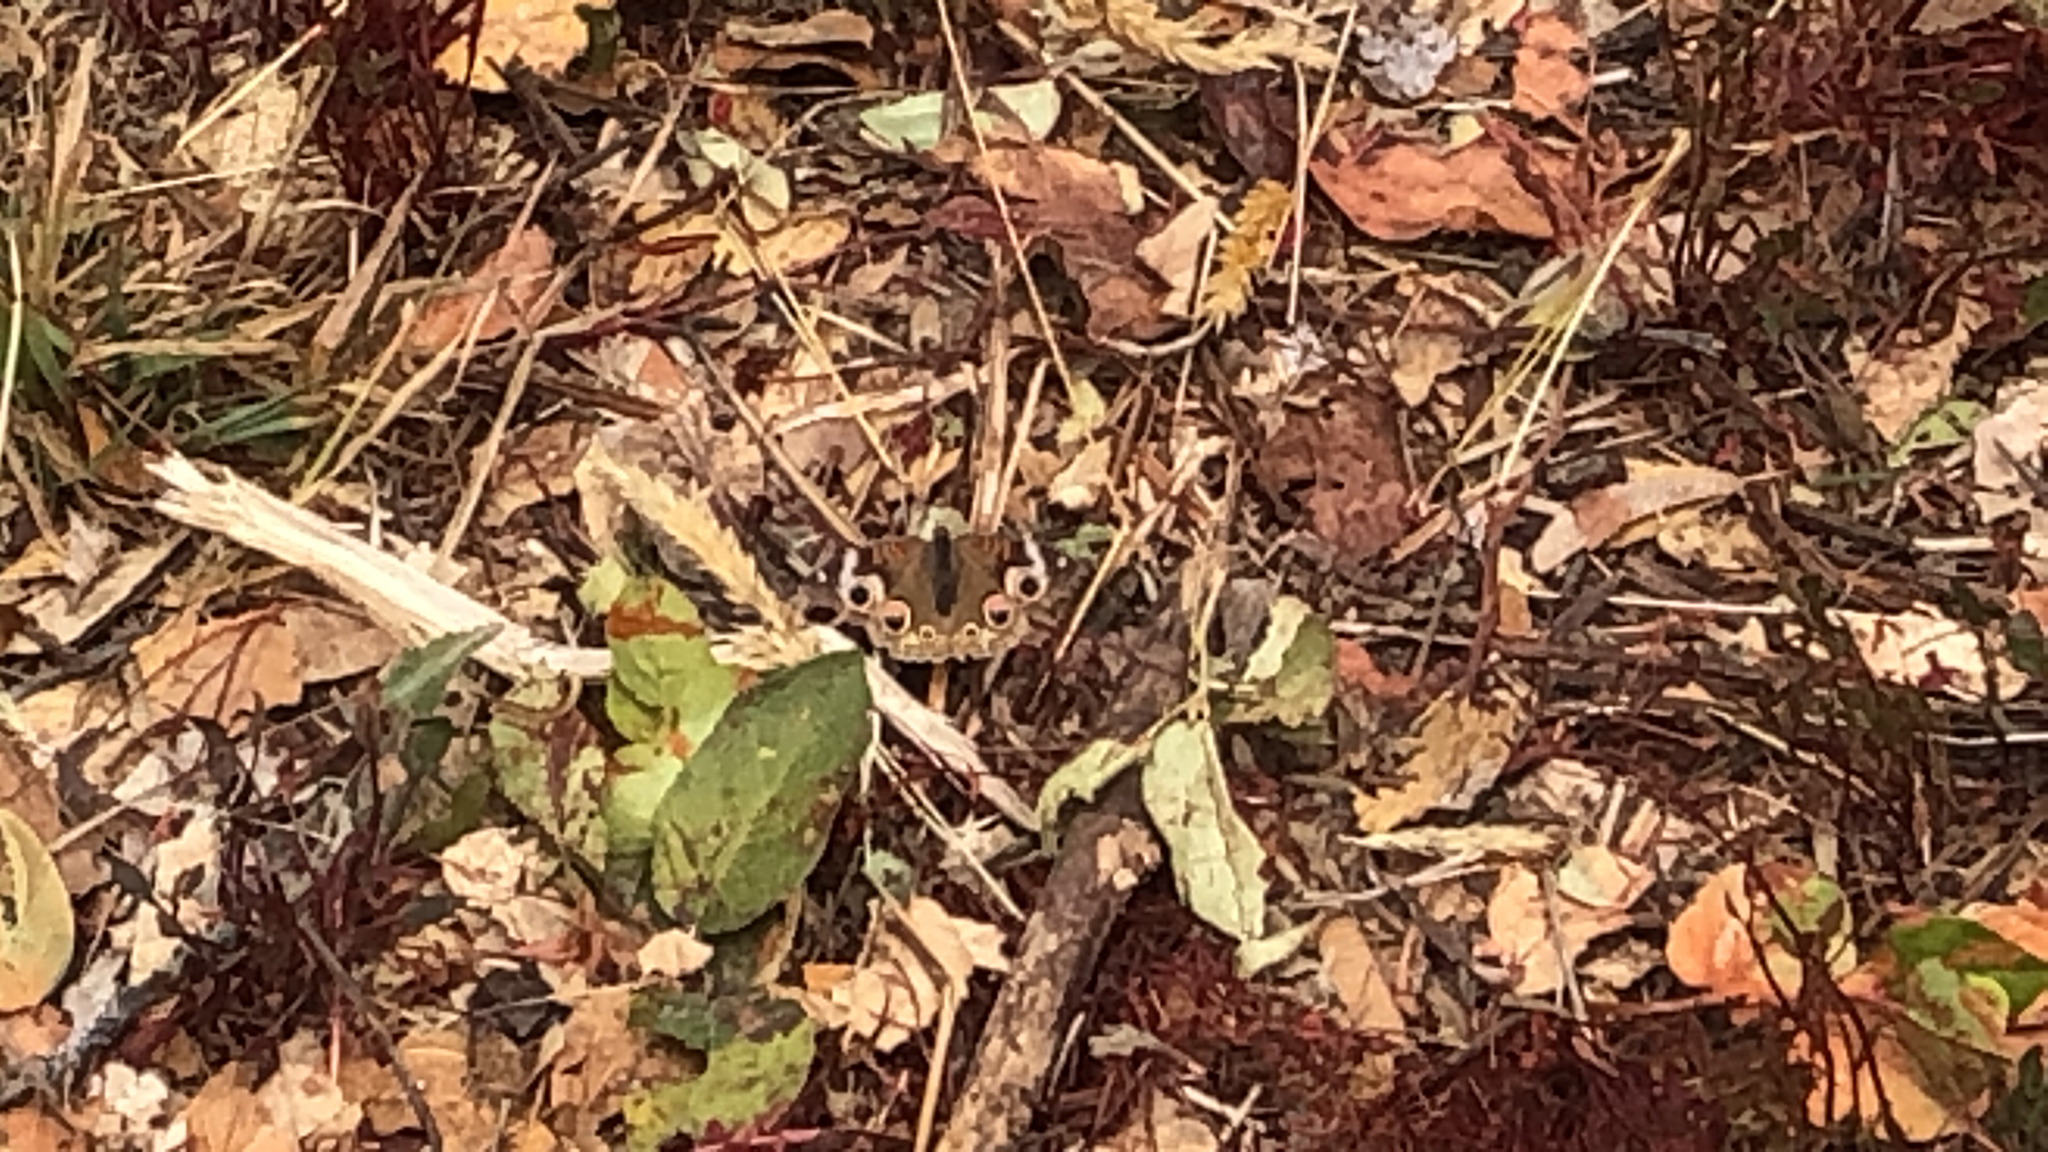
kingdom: Animalia
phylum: Arthropoda
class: Insecta
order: Lepidoptera
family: Nymphalidae
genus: Junonia
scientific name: Junonia grisea
